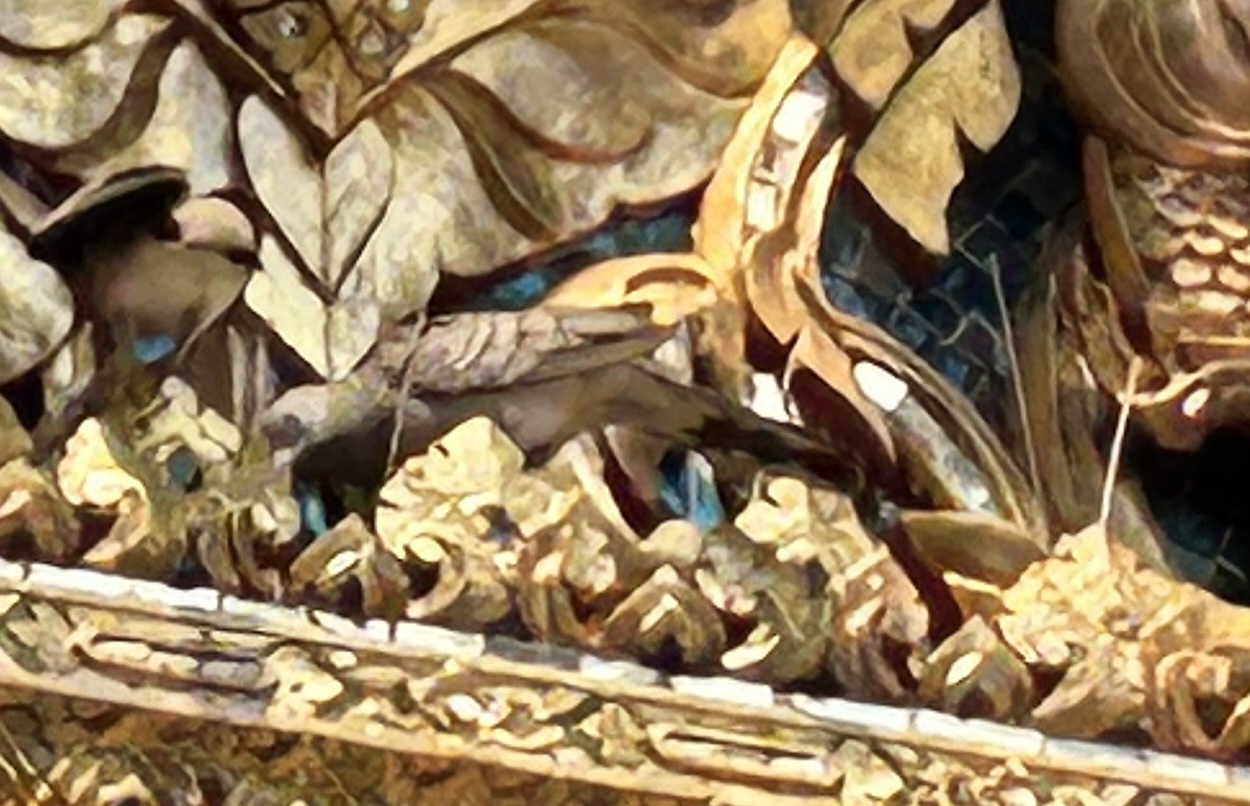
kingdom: Animalia
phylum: Chordata
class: Aves
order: Columbiformes
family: Columbidae
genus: Geopelia
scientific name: Geopelia striata
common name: Zebra dove
